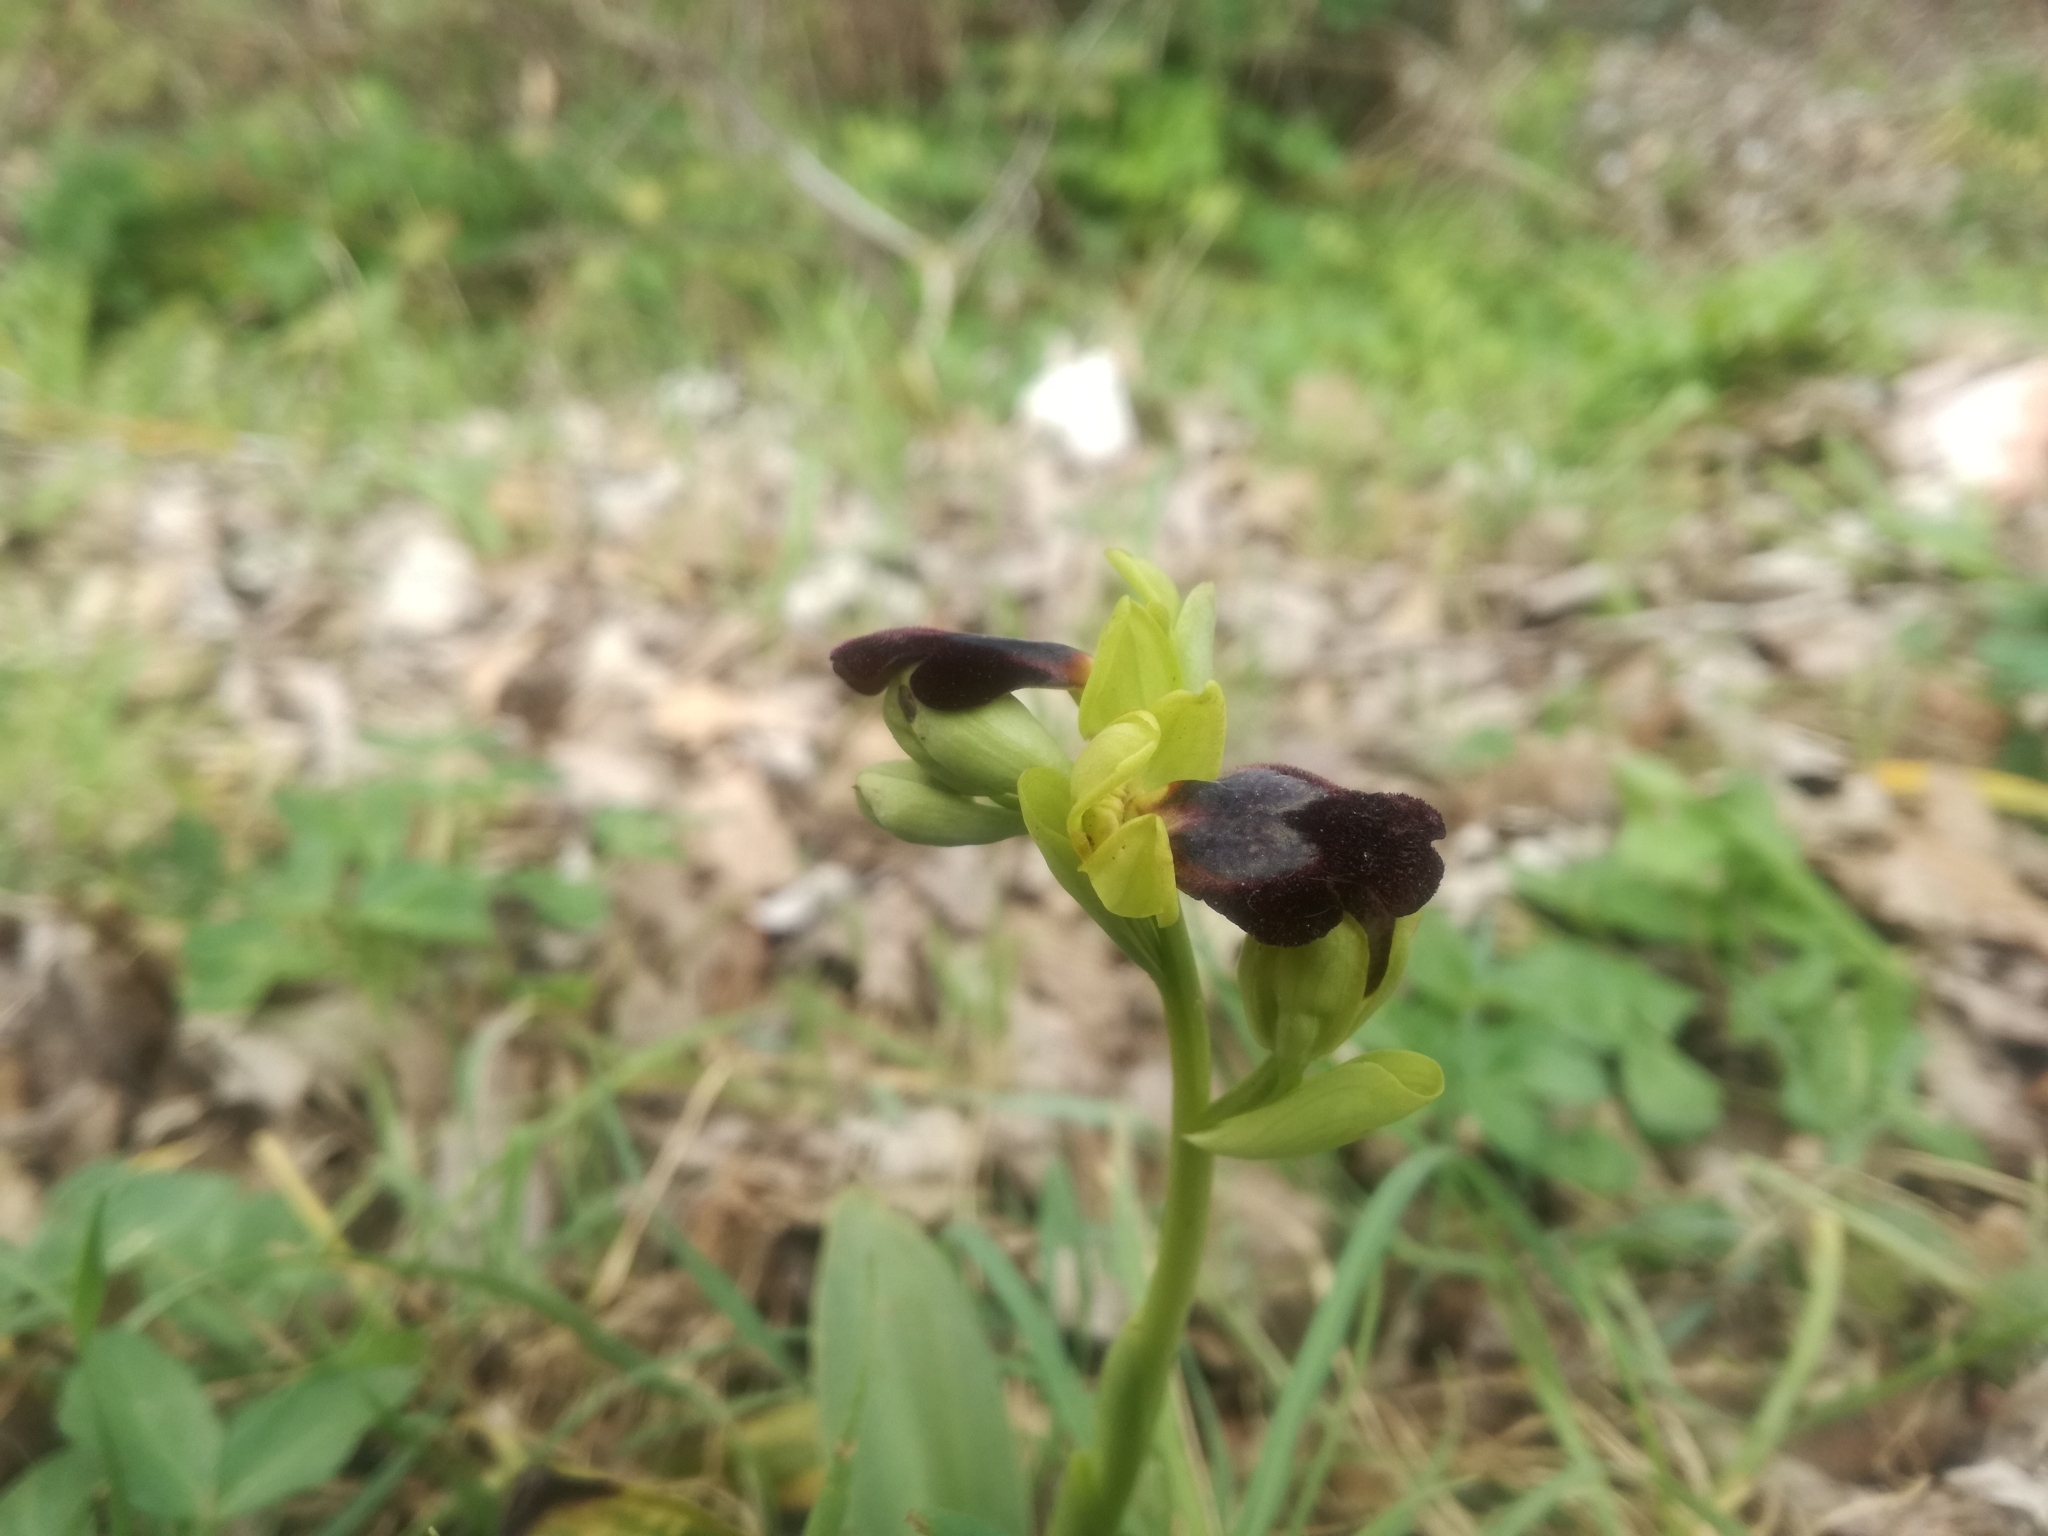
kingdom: Plantae
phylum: Tracheophyta
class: Liliopsida
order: Asparagales
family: Orchidaceae
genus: Ophrys
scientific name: Ophrys fusca
